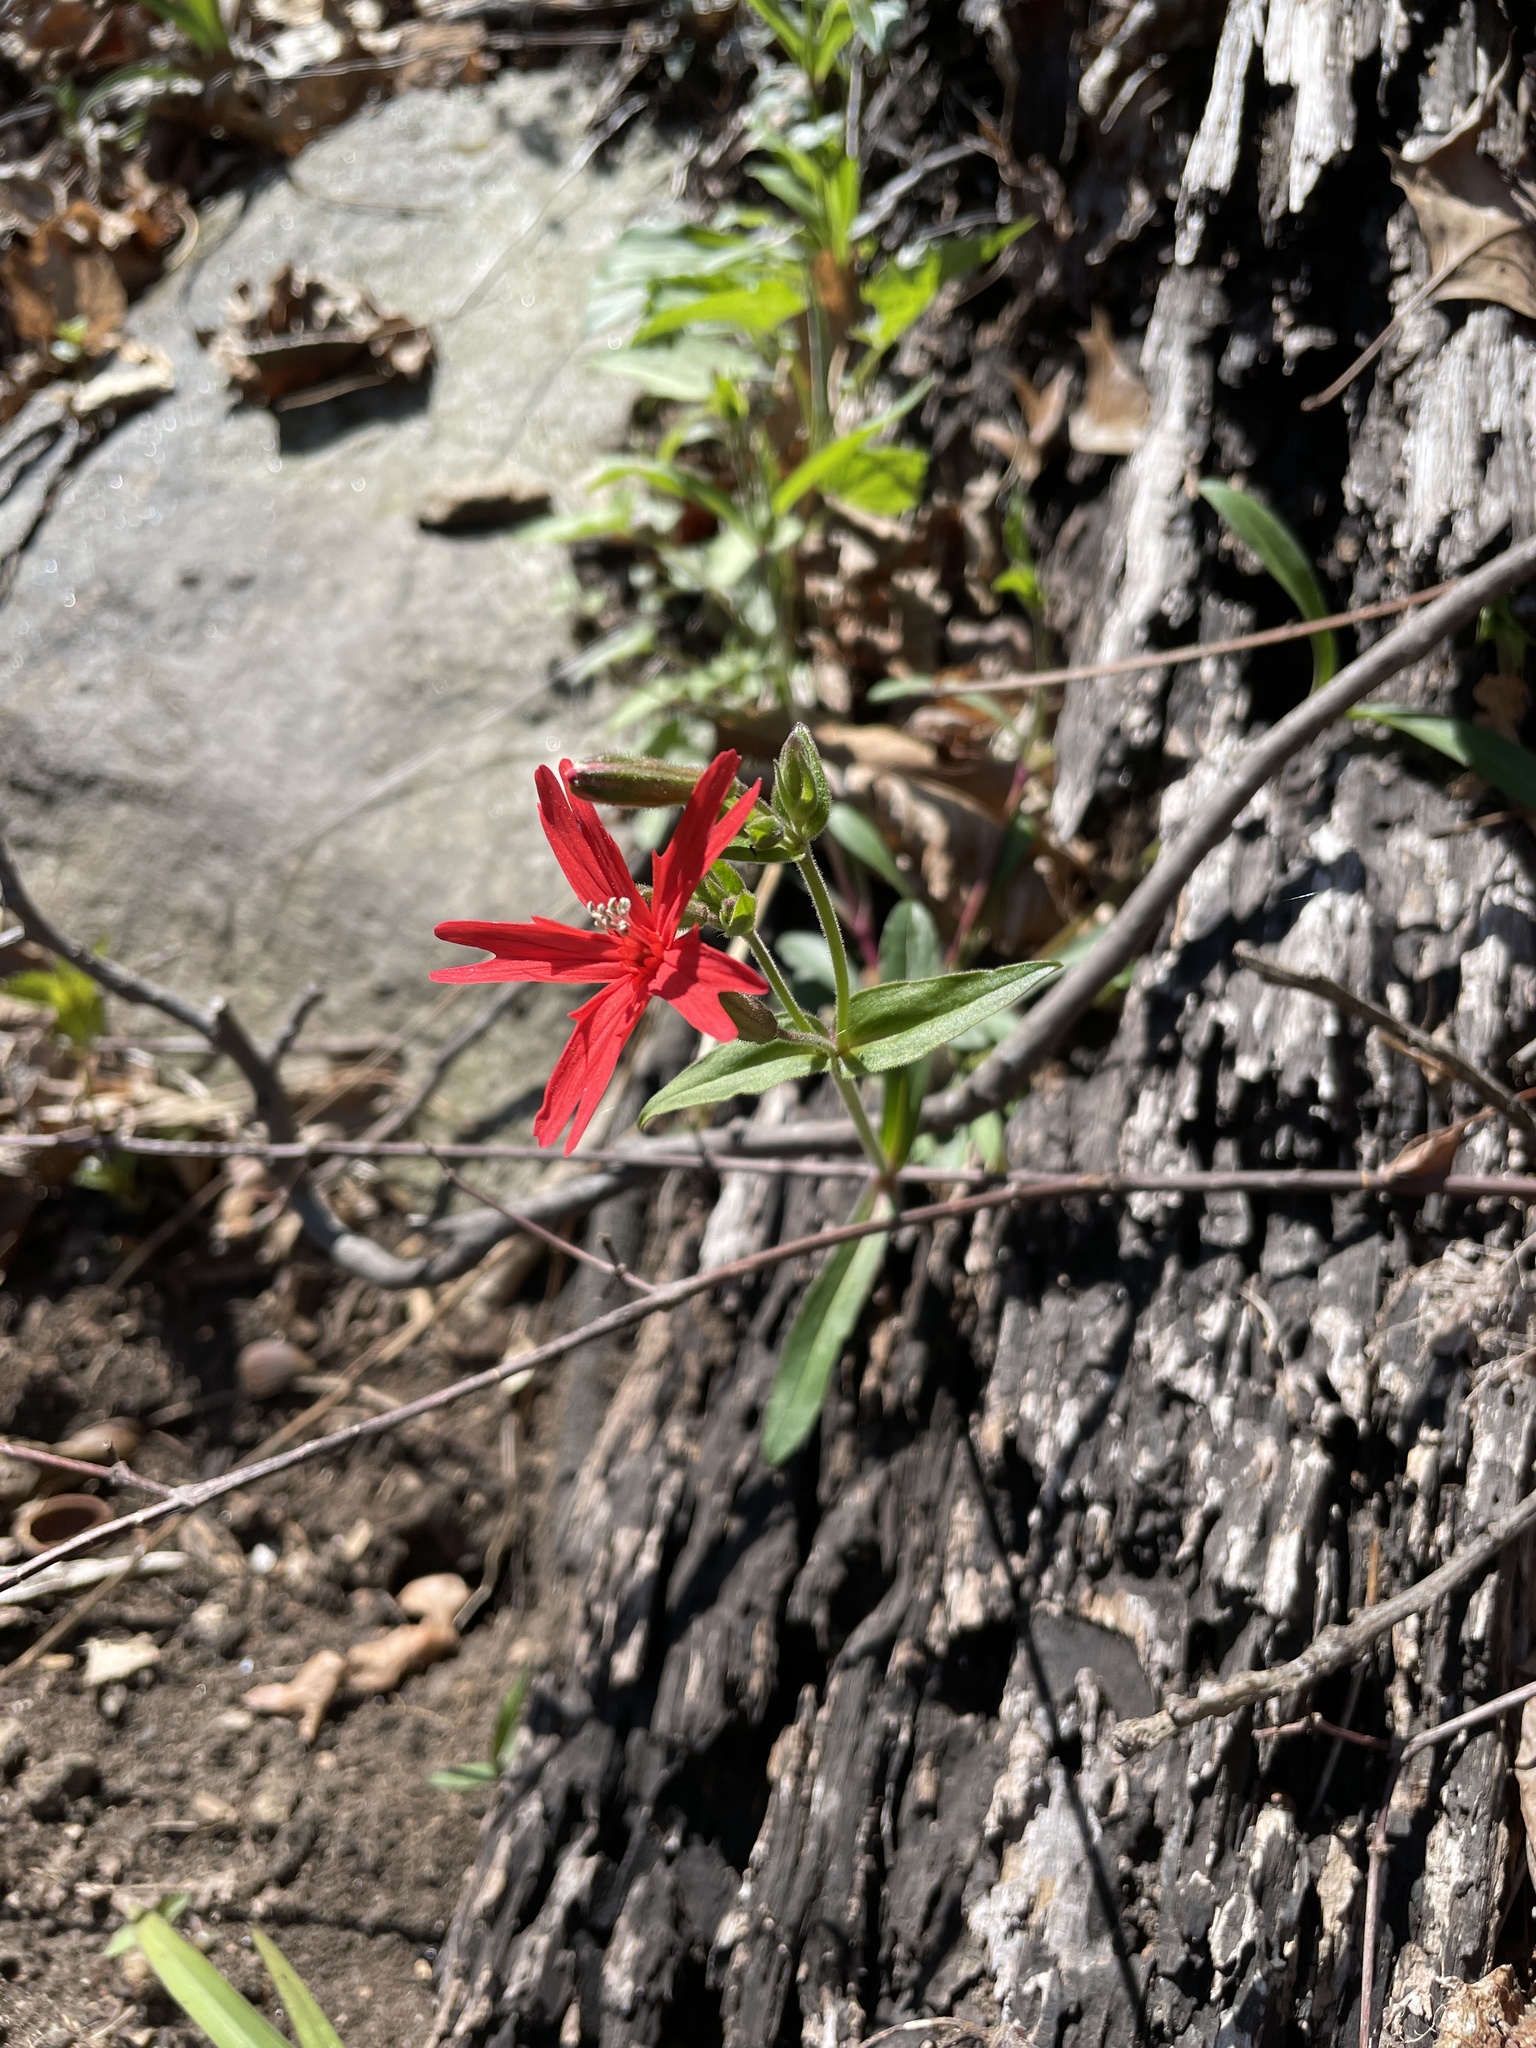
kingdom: Plantae
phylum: Tracheophyta
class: Magnoliopsida
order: Caryophyllales
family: Caryophyllaceae
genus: Silene
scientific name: Silene virginica
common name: Fire-pink
